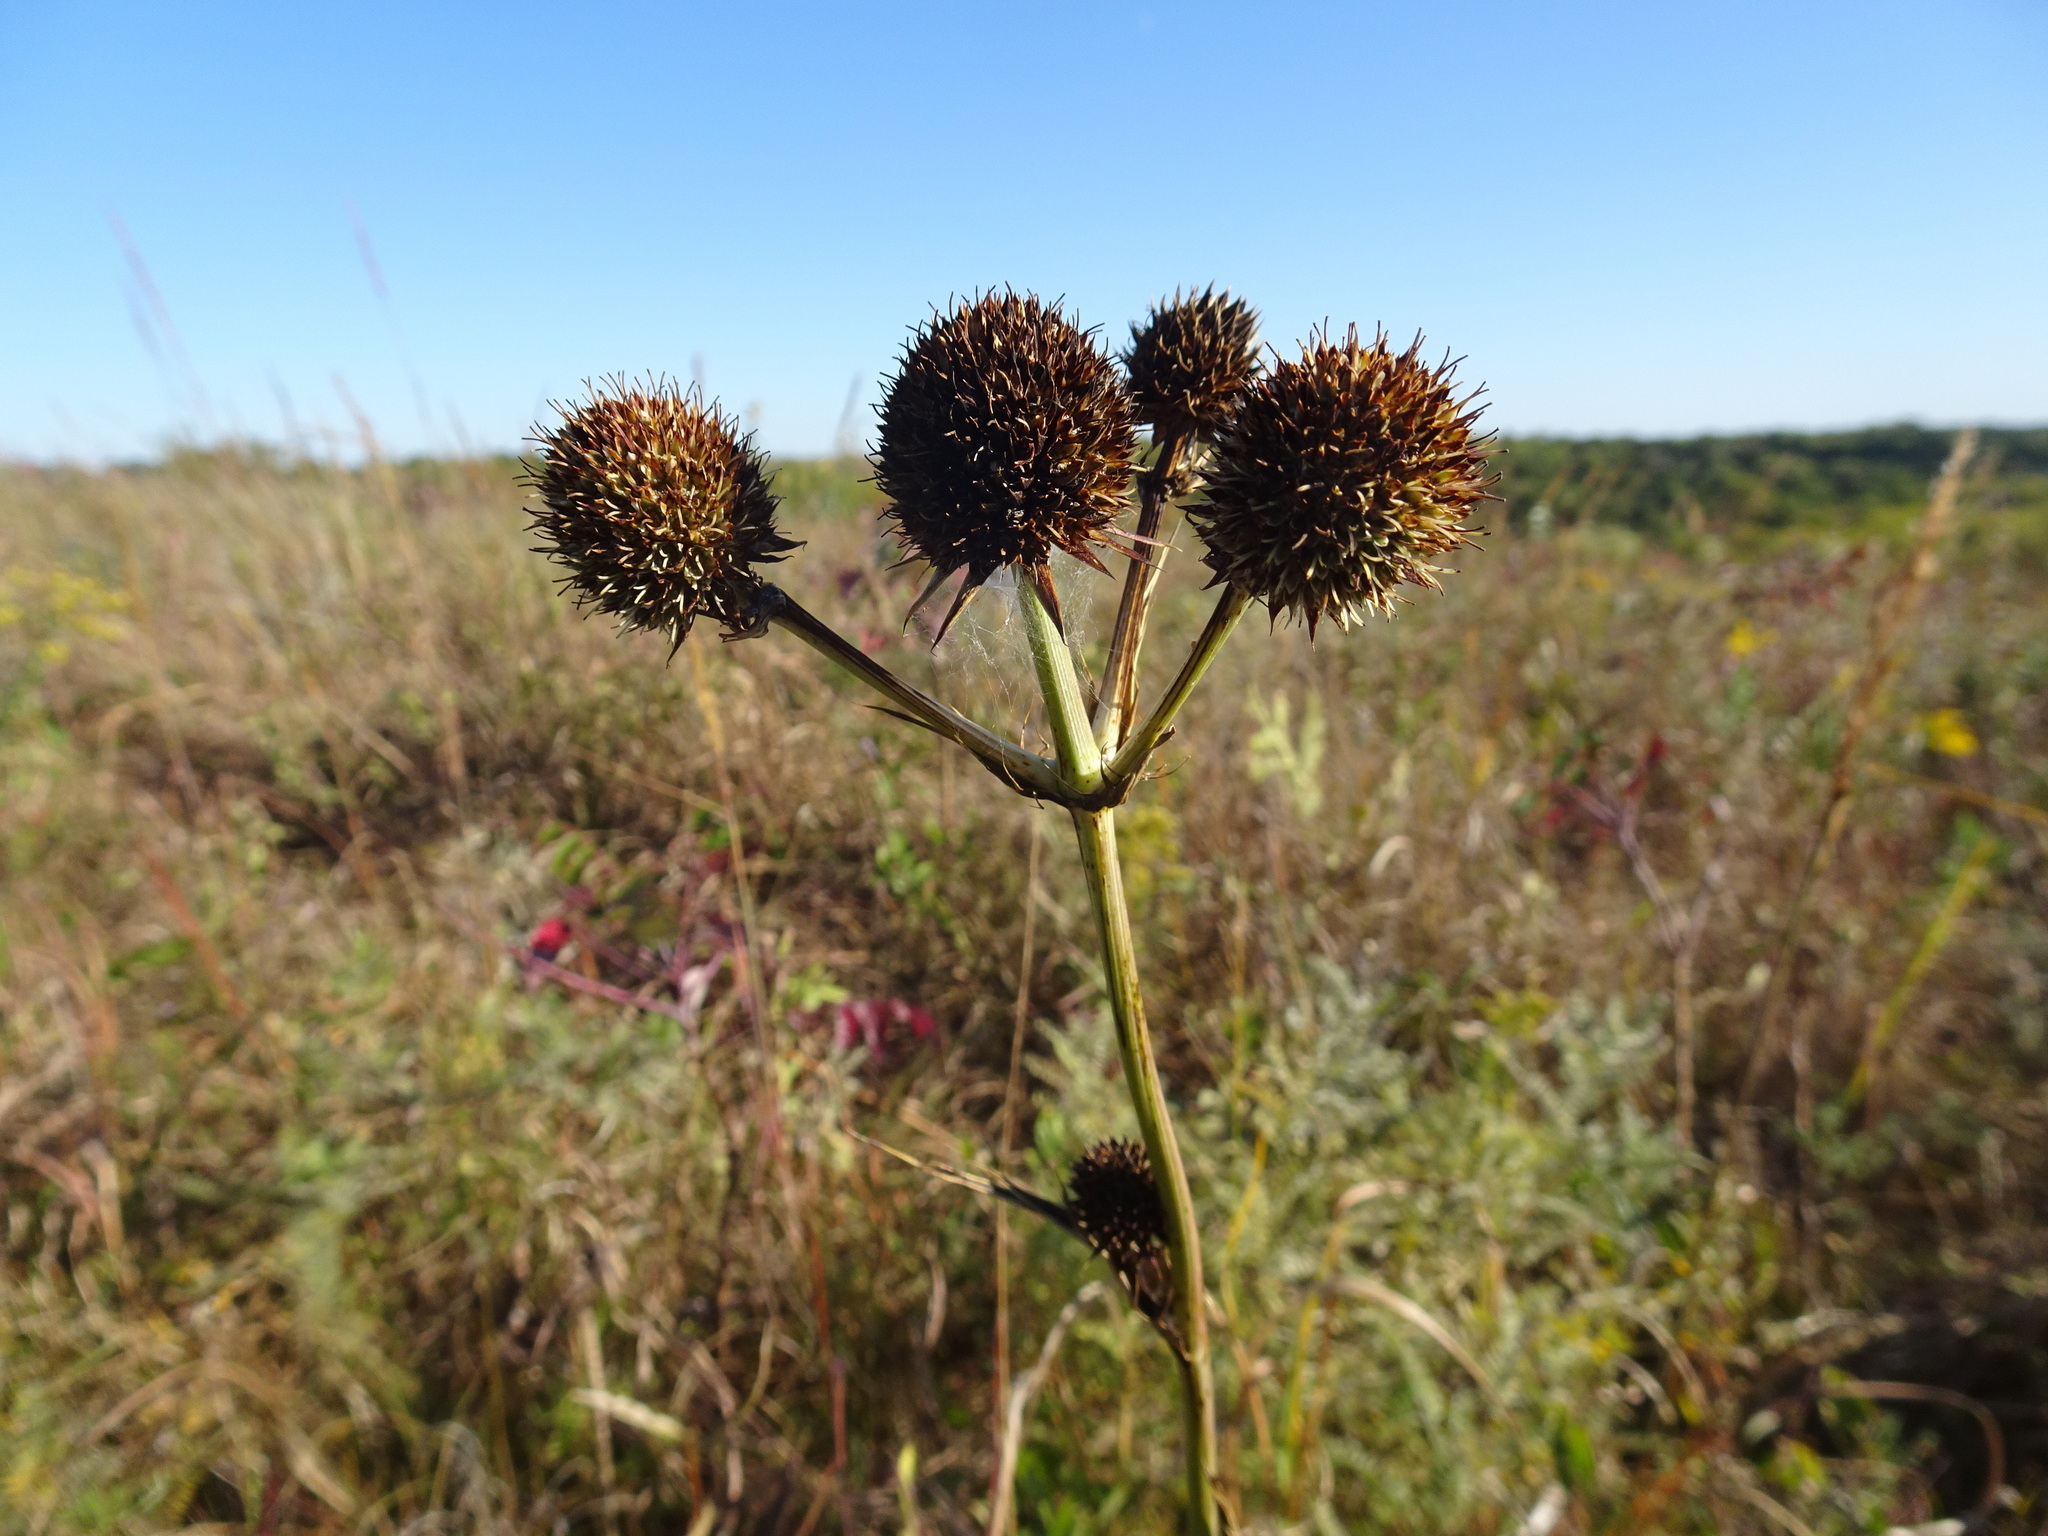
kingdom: Plantae
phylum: Tracheophyta
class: Magnoliopsida
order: Apiales
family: Apiaceae
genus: Eryngium
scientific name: Eryngium yuccifolium
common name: Button eryngo
